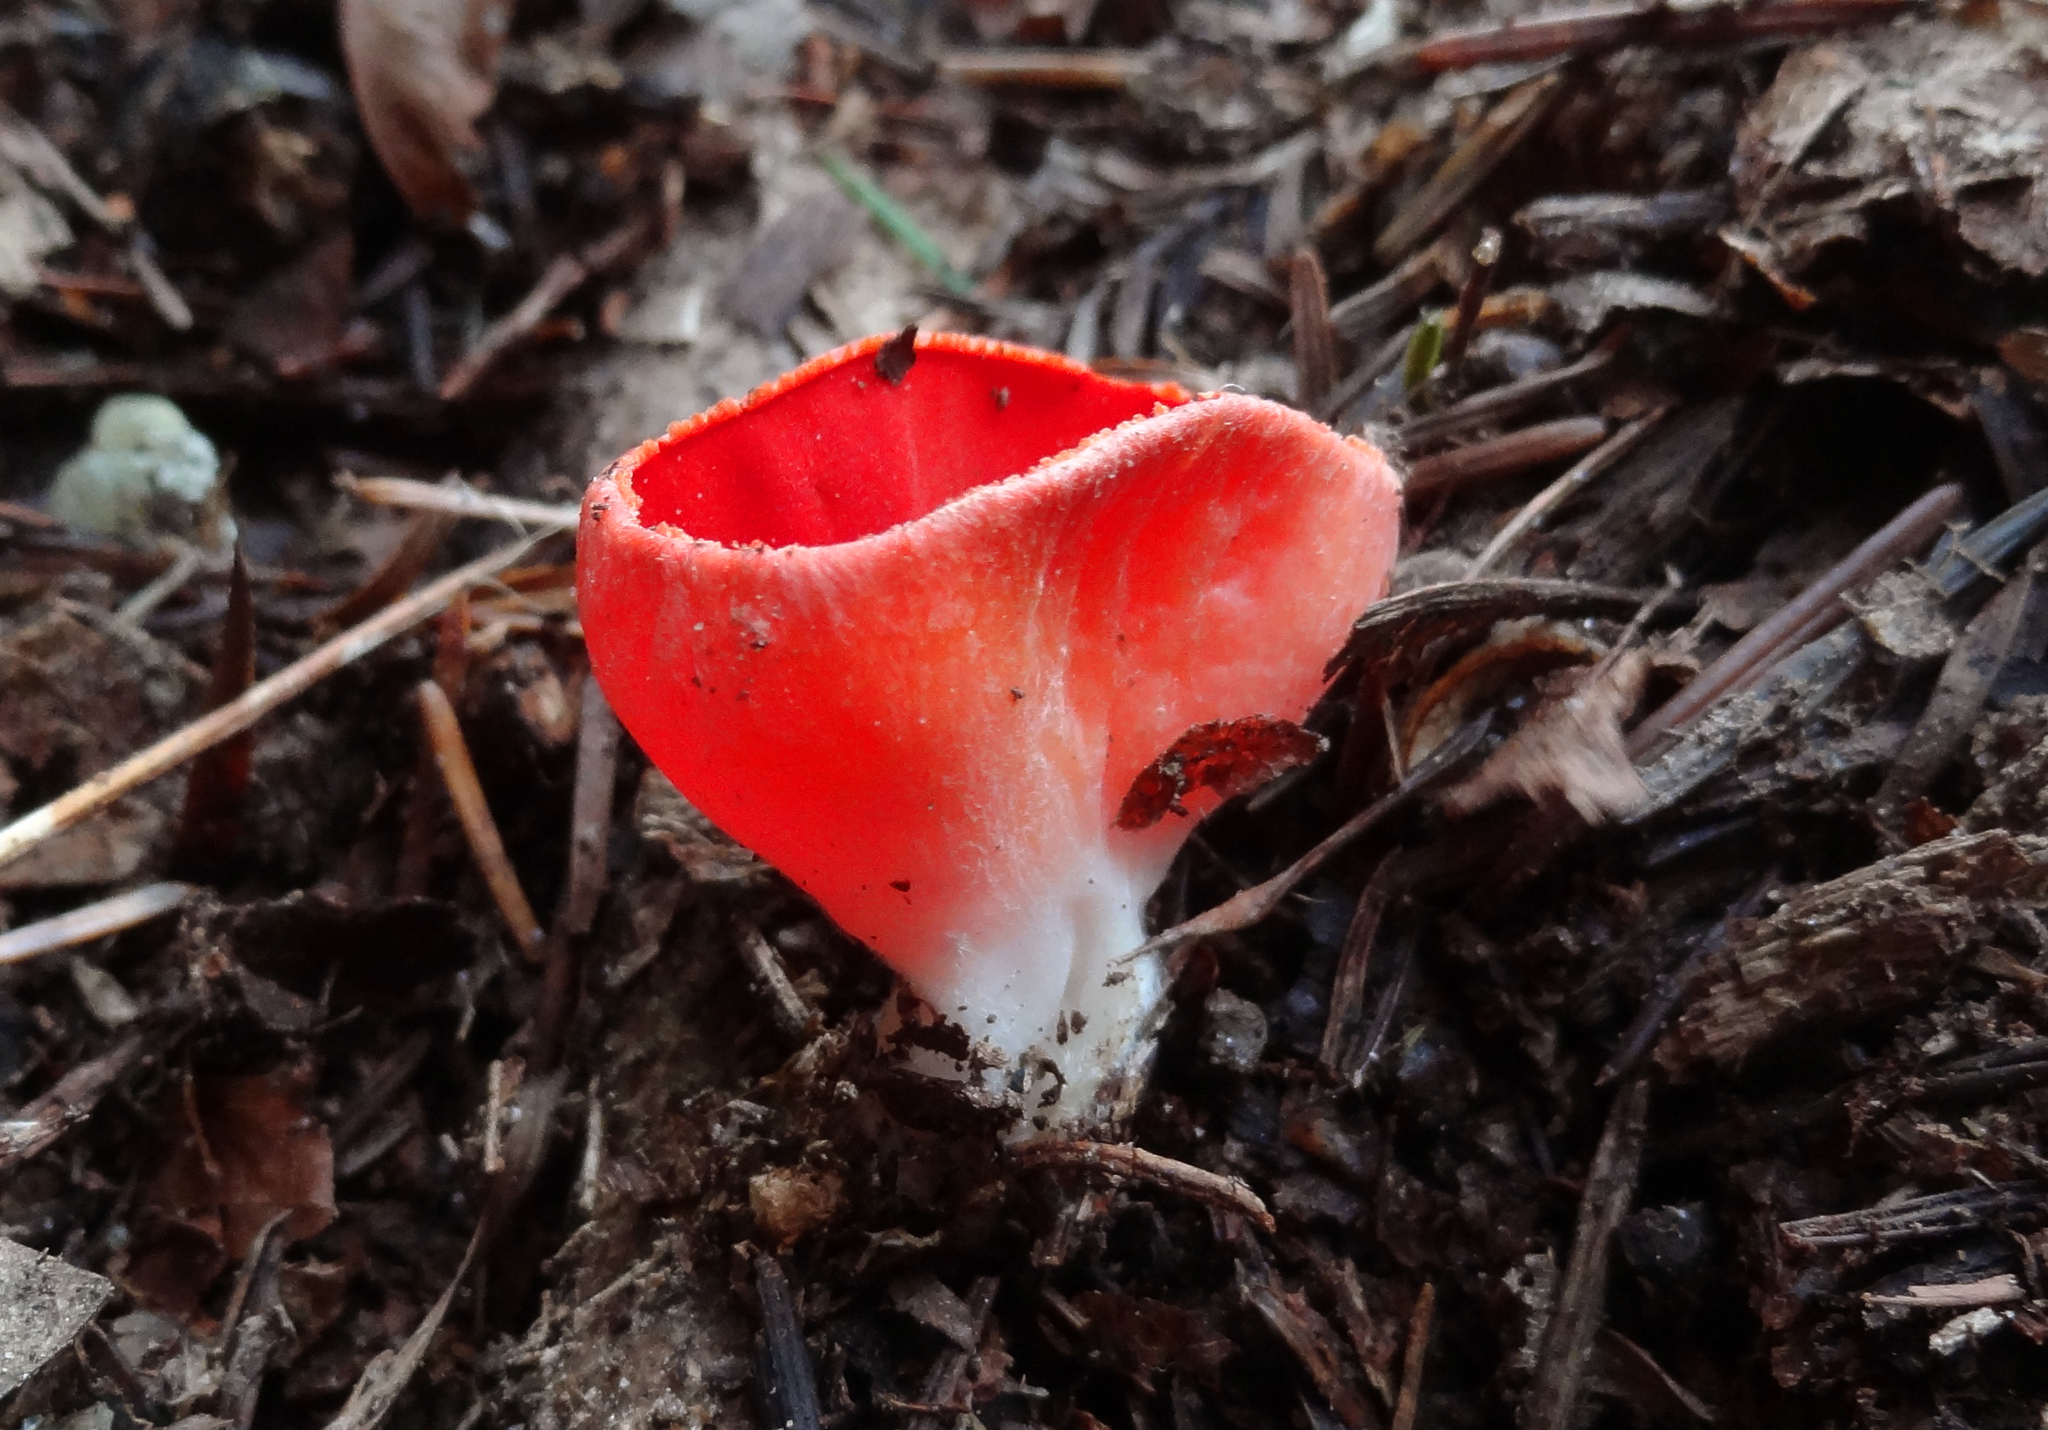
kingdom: Fungi
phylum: Ascomycota
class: Pezizomycetes
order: Pezizales
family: Sarcoscyphaceae
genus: Sarcoscypha
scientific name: Sarcoscypha coccinea
